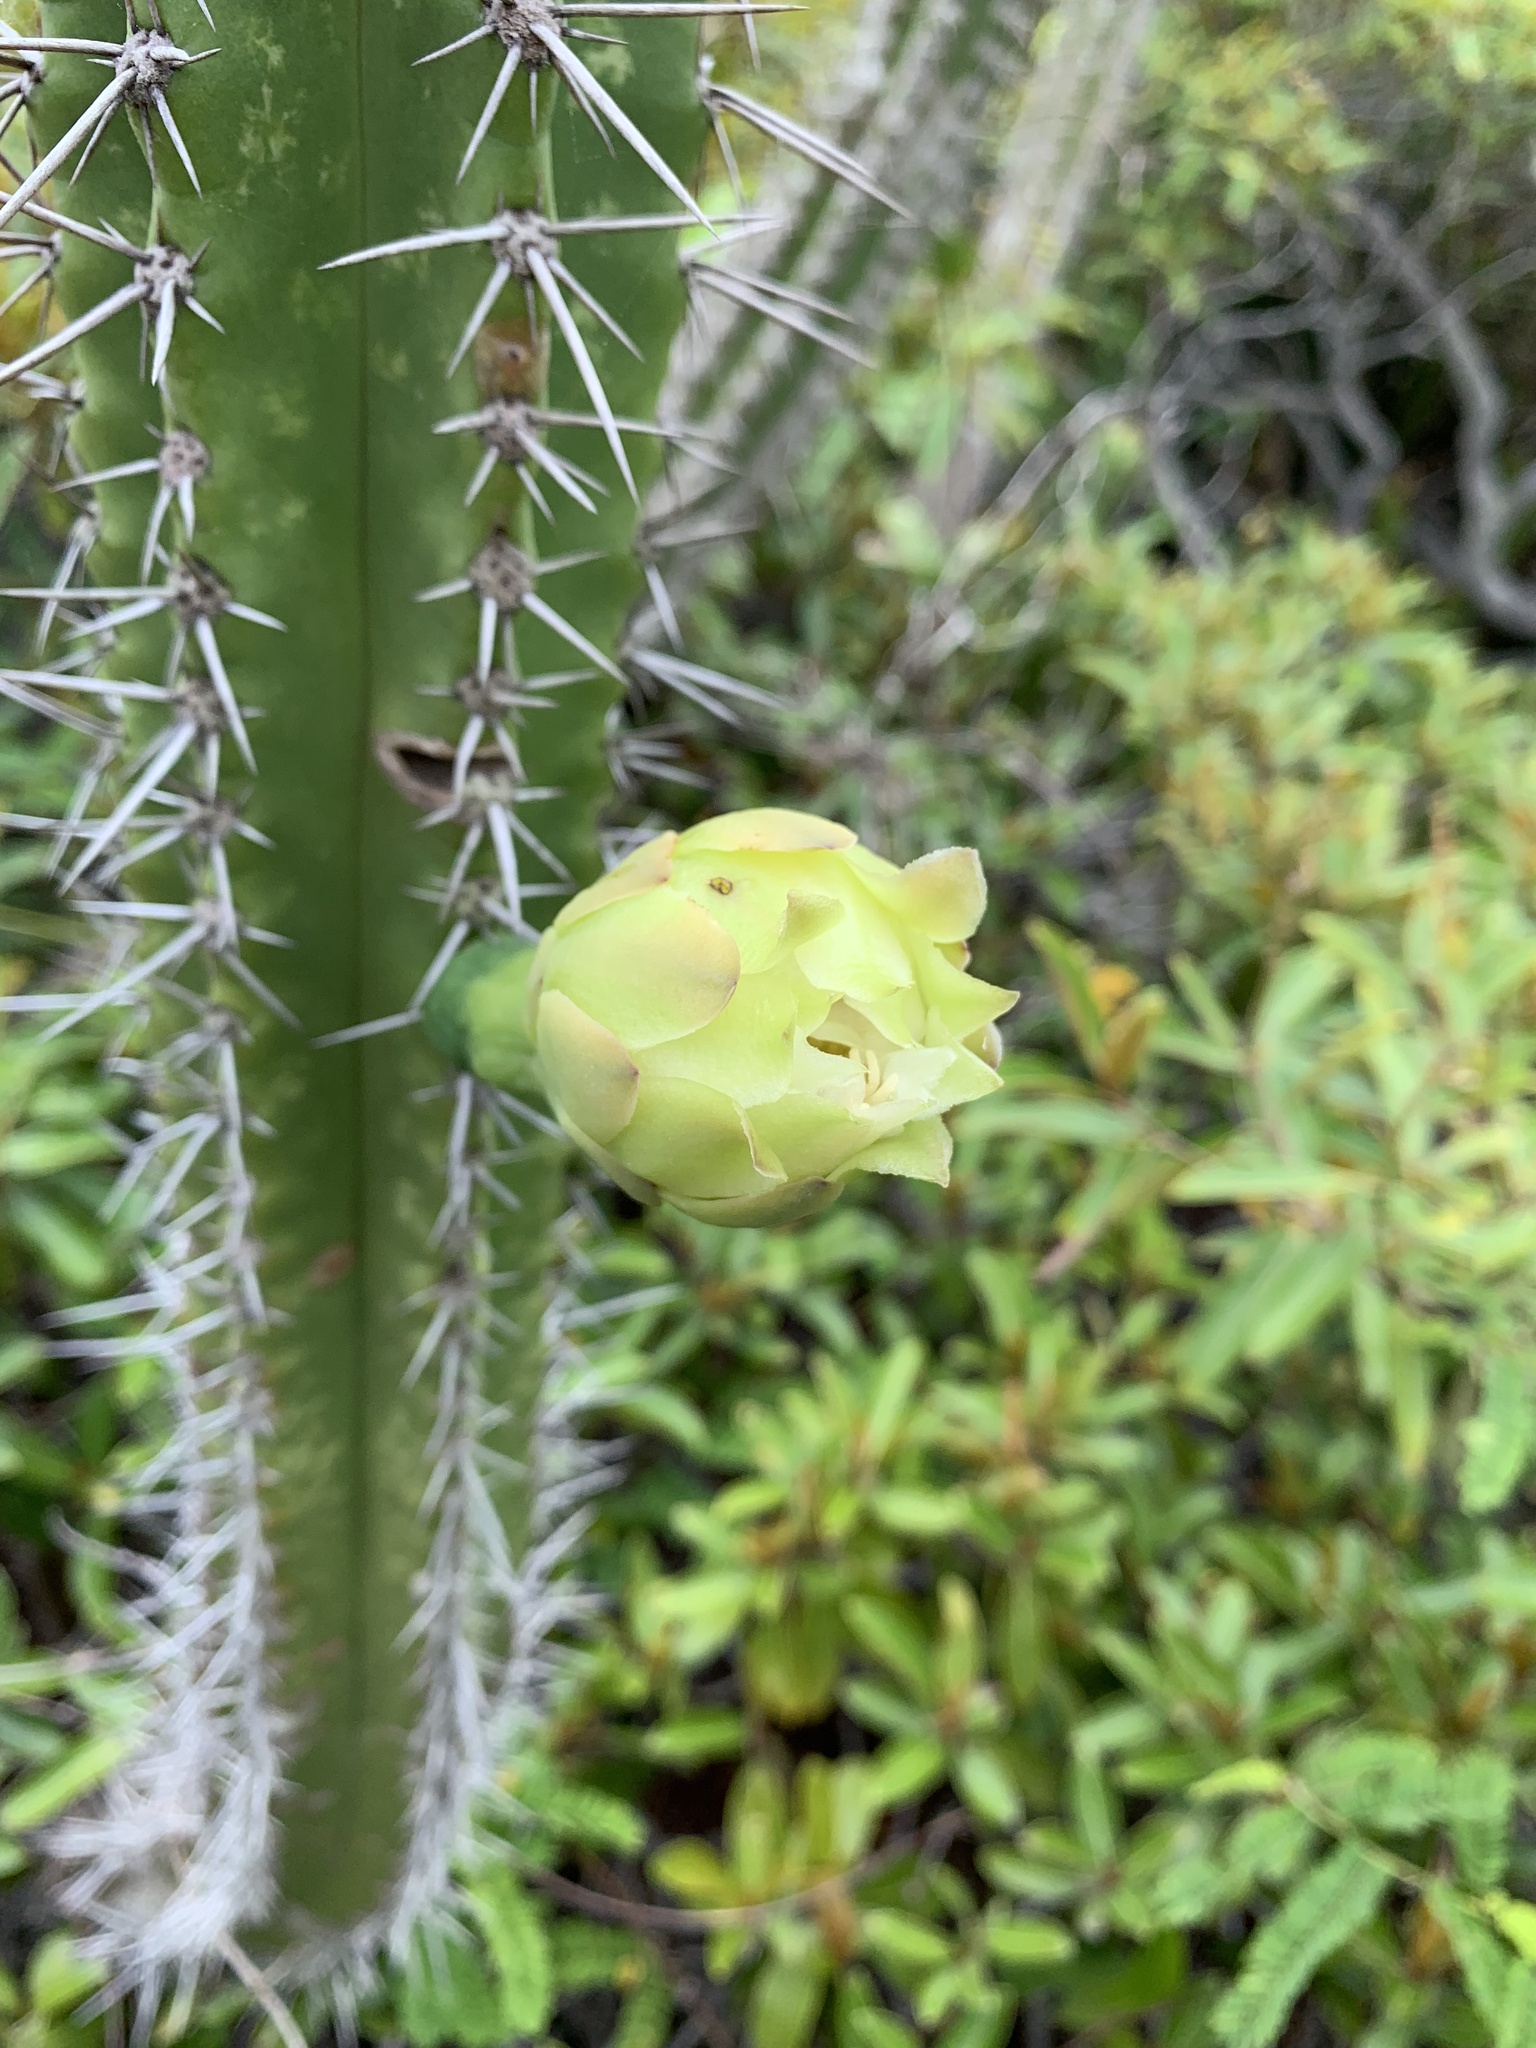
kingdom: Plantae
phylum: Tracheophyta
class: Magnoliopsida
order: Caryophyllales
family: Cactaceae
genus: Cereus
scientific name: Cereus fernambucensis
